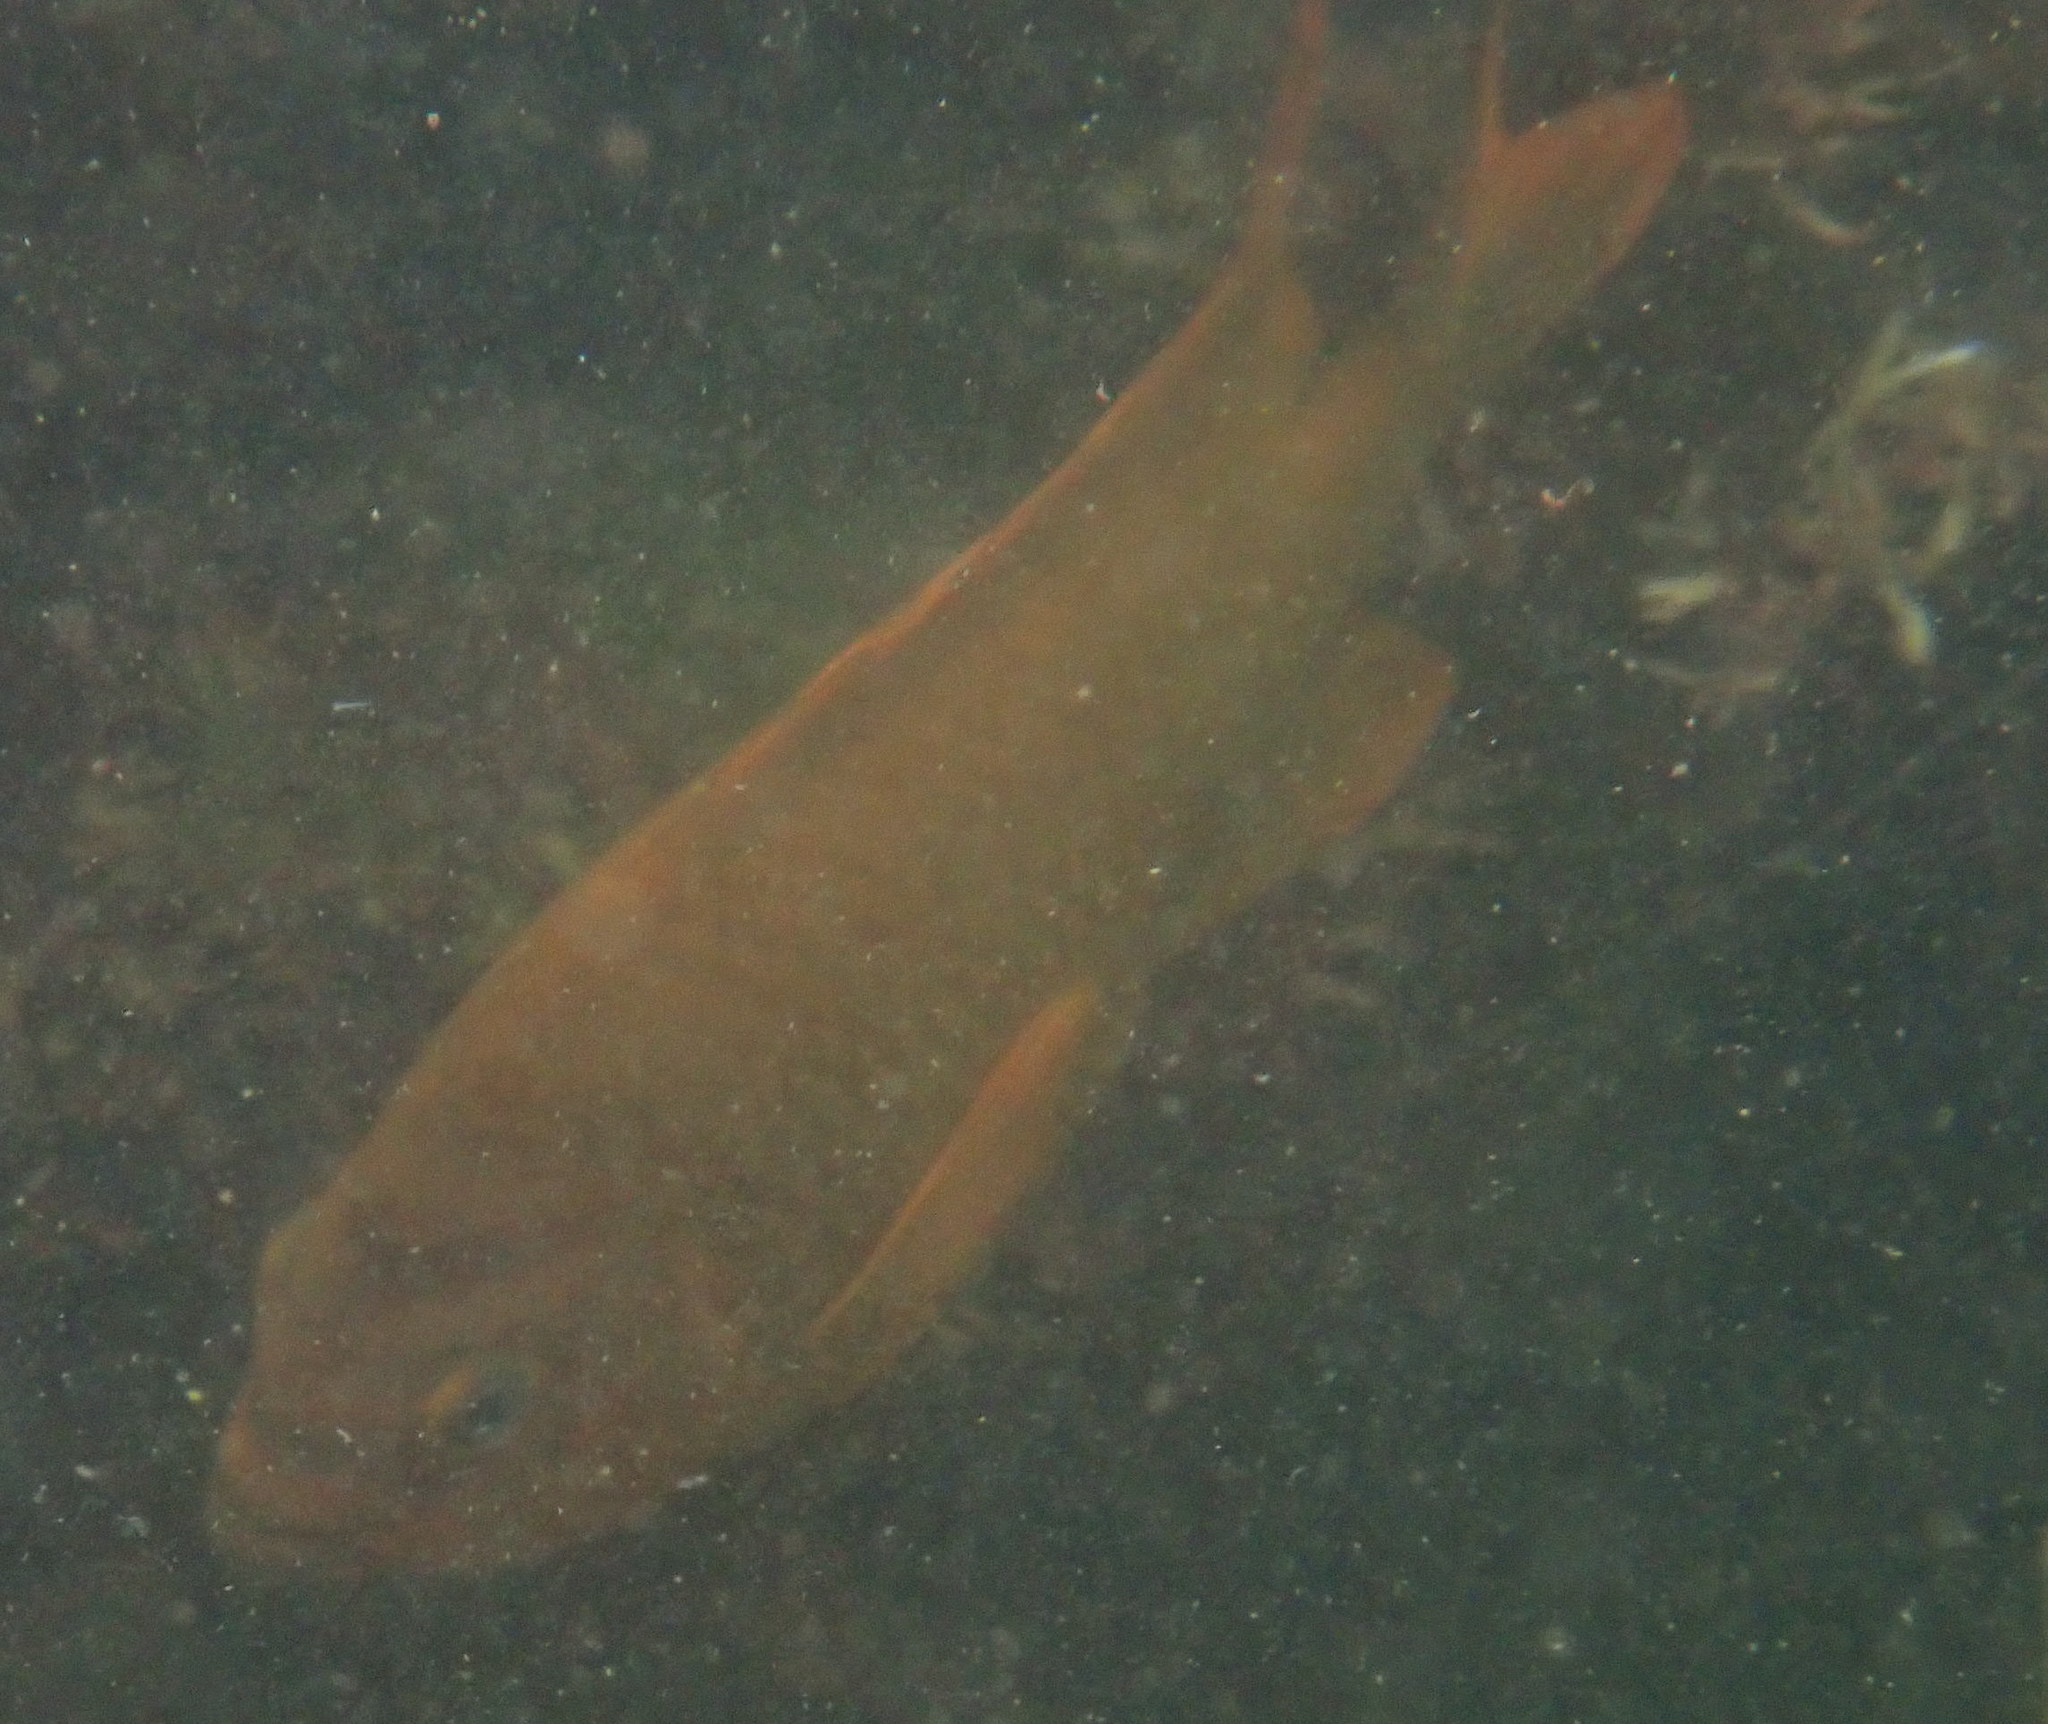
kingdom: Animalia
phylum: Chordata
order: Perciformes
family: Pomacentridae
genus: Hypsypops
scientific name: Hypsypops rubicundus
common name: Garibaldi
